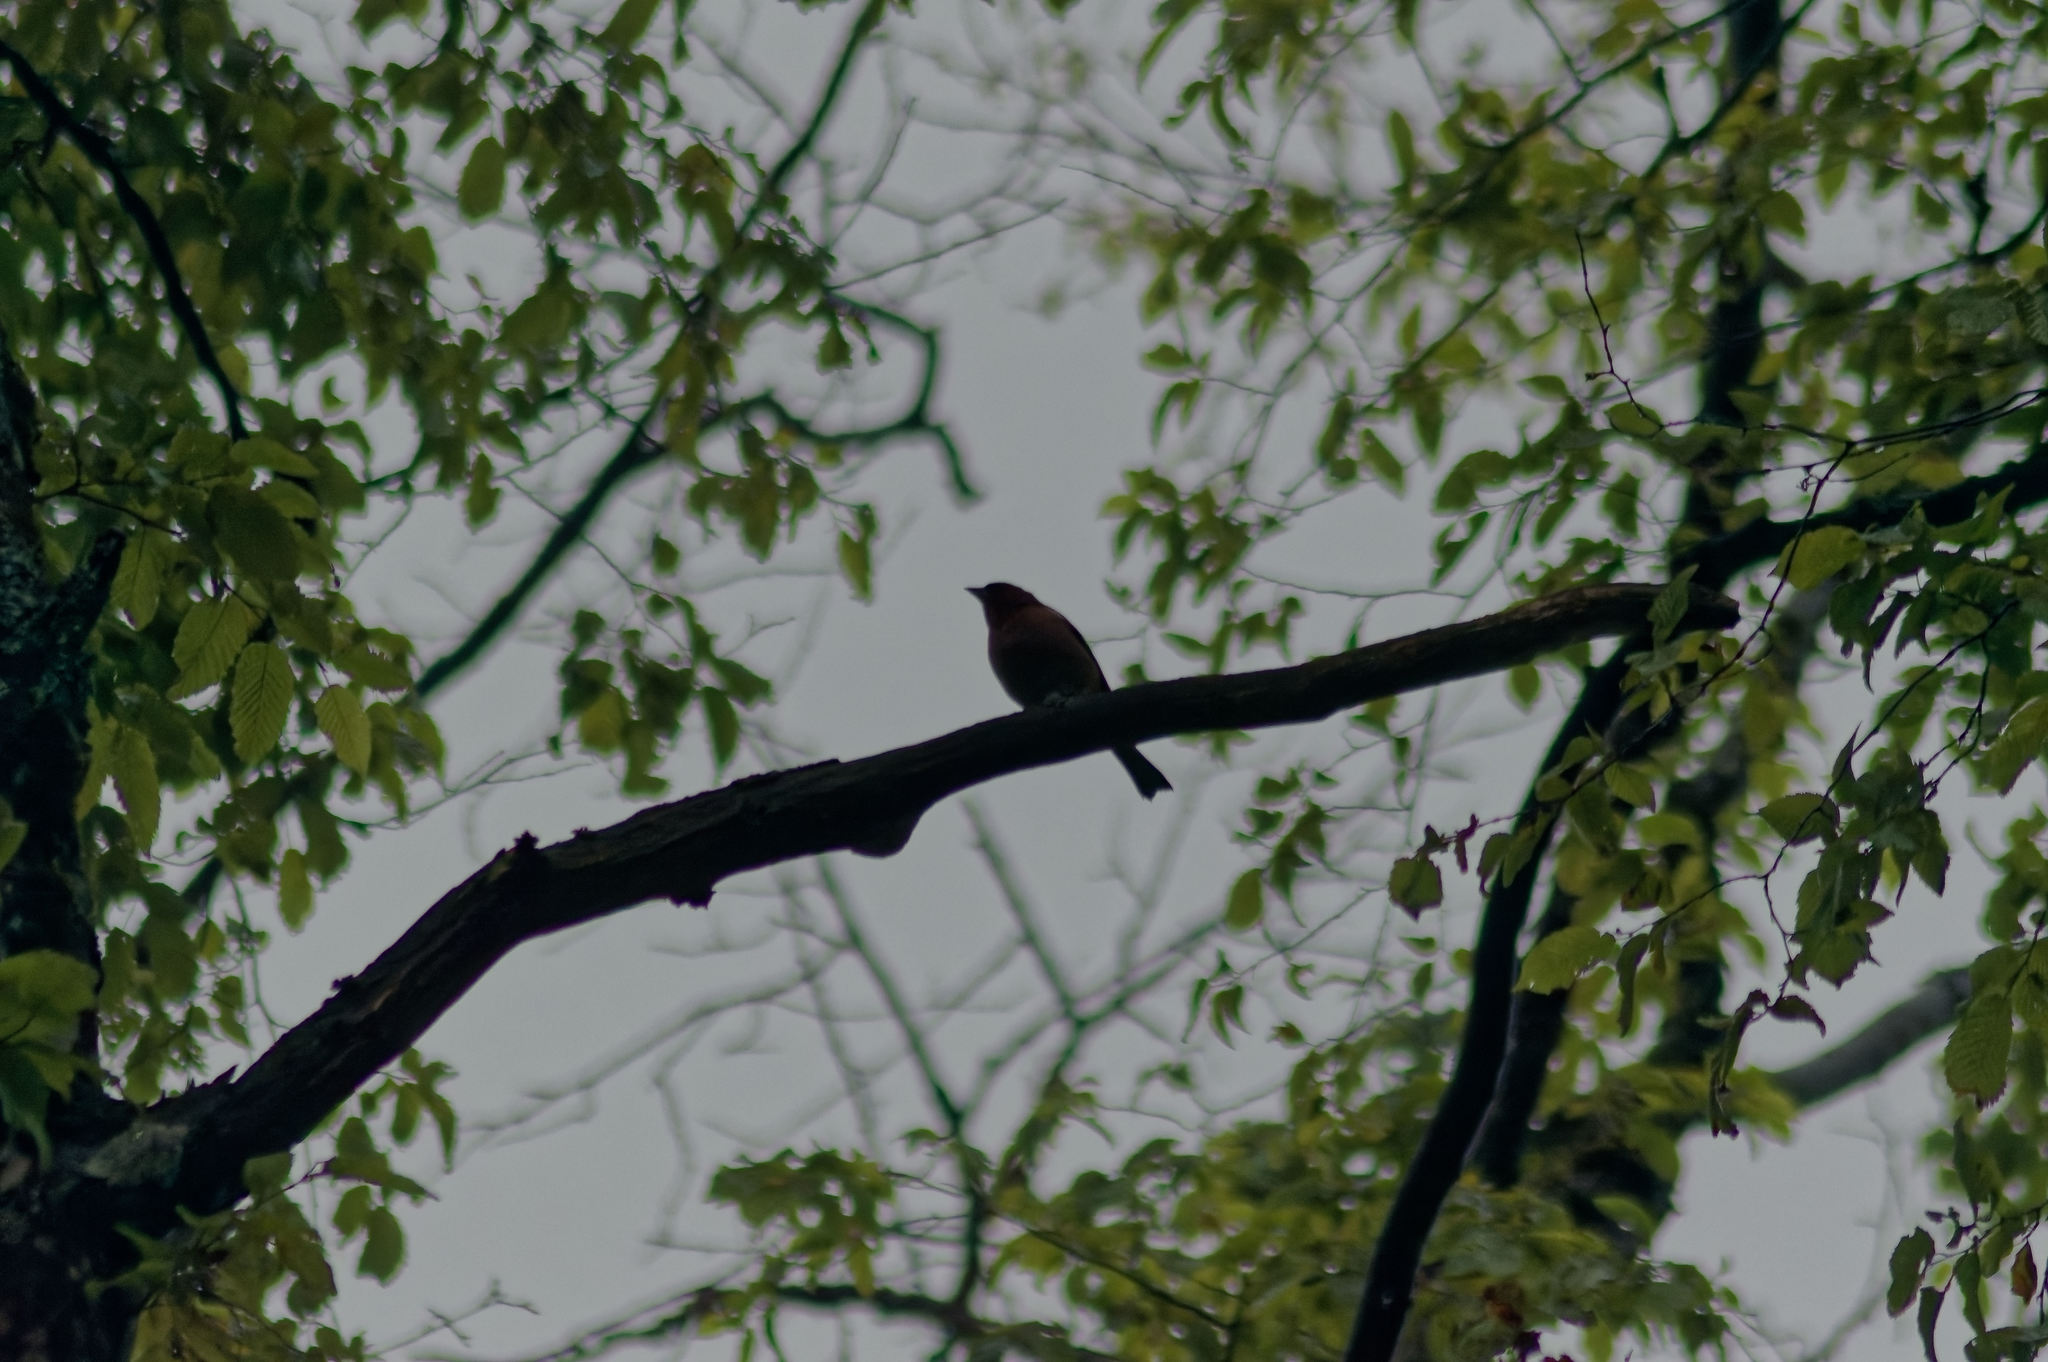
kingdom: Animalia
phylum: Chordata
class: Aves
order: Passeriformes
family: Fringillidae
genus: Fringilla
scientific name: Fringilla coelebs
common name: Common chaffinch
